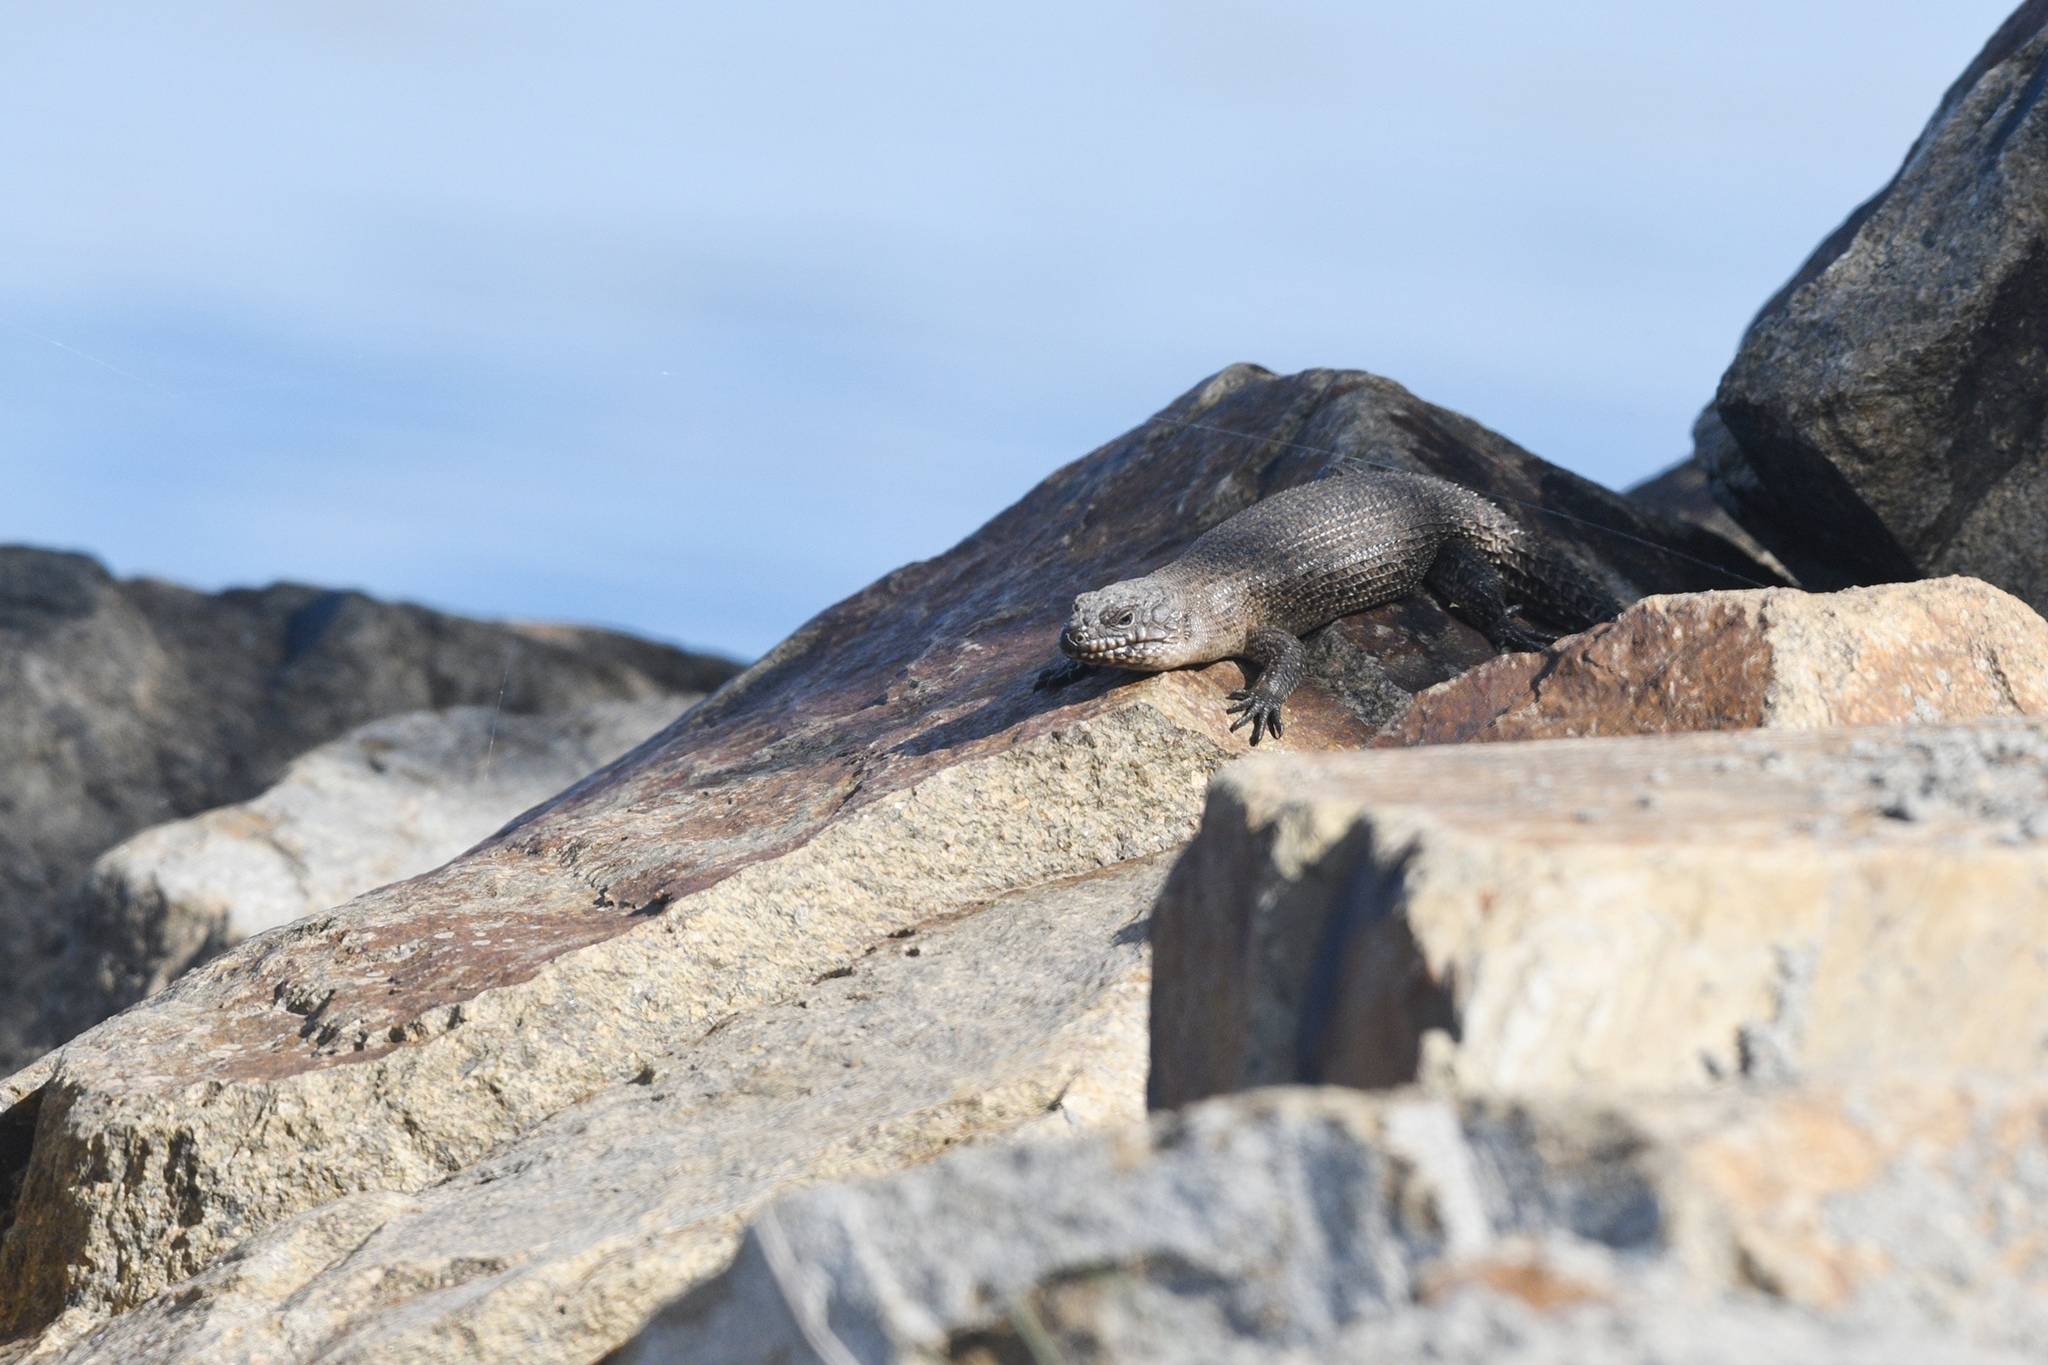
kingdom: Animalia
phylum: Chordata
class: Squamata
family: Scincidae
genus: Egernia
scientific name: Egernia cunninghami
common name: Cunningham's skink
